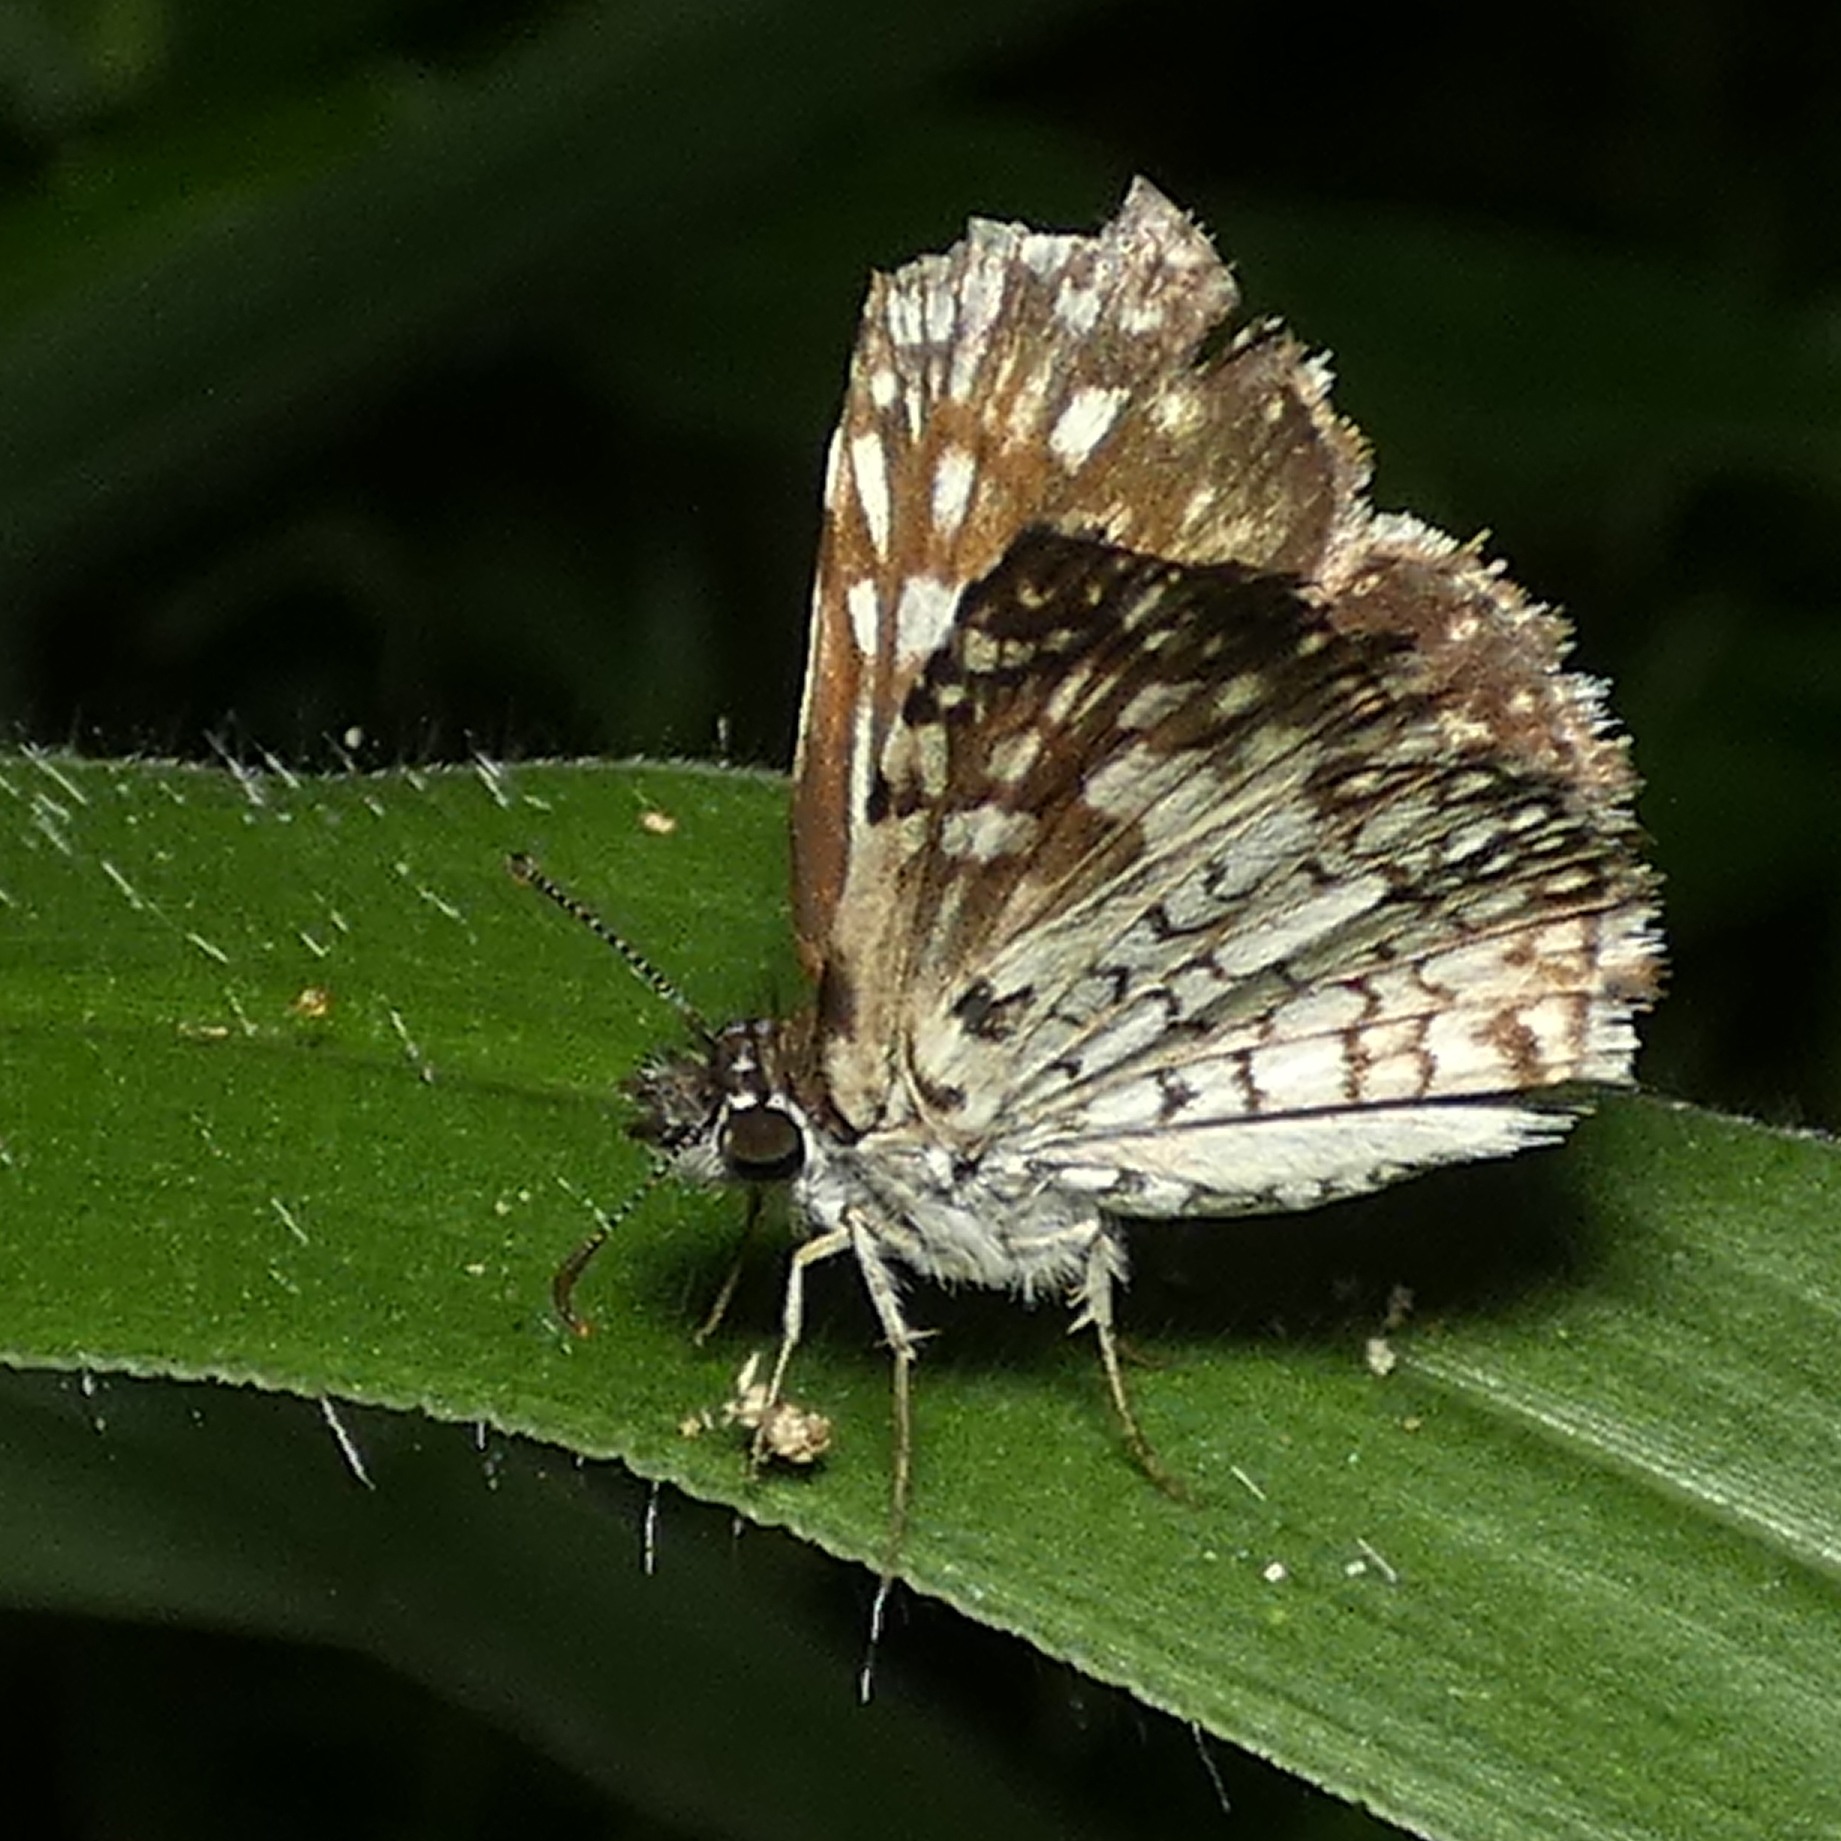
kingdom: Animalia
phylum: Arthropoda
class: Insecta
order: Lepidoptera
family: Hesperiidae
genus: Pyrgus
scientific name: Pyrgus oileus
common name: Tropical checkered-skipper
